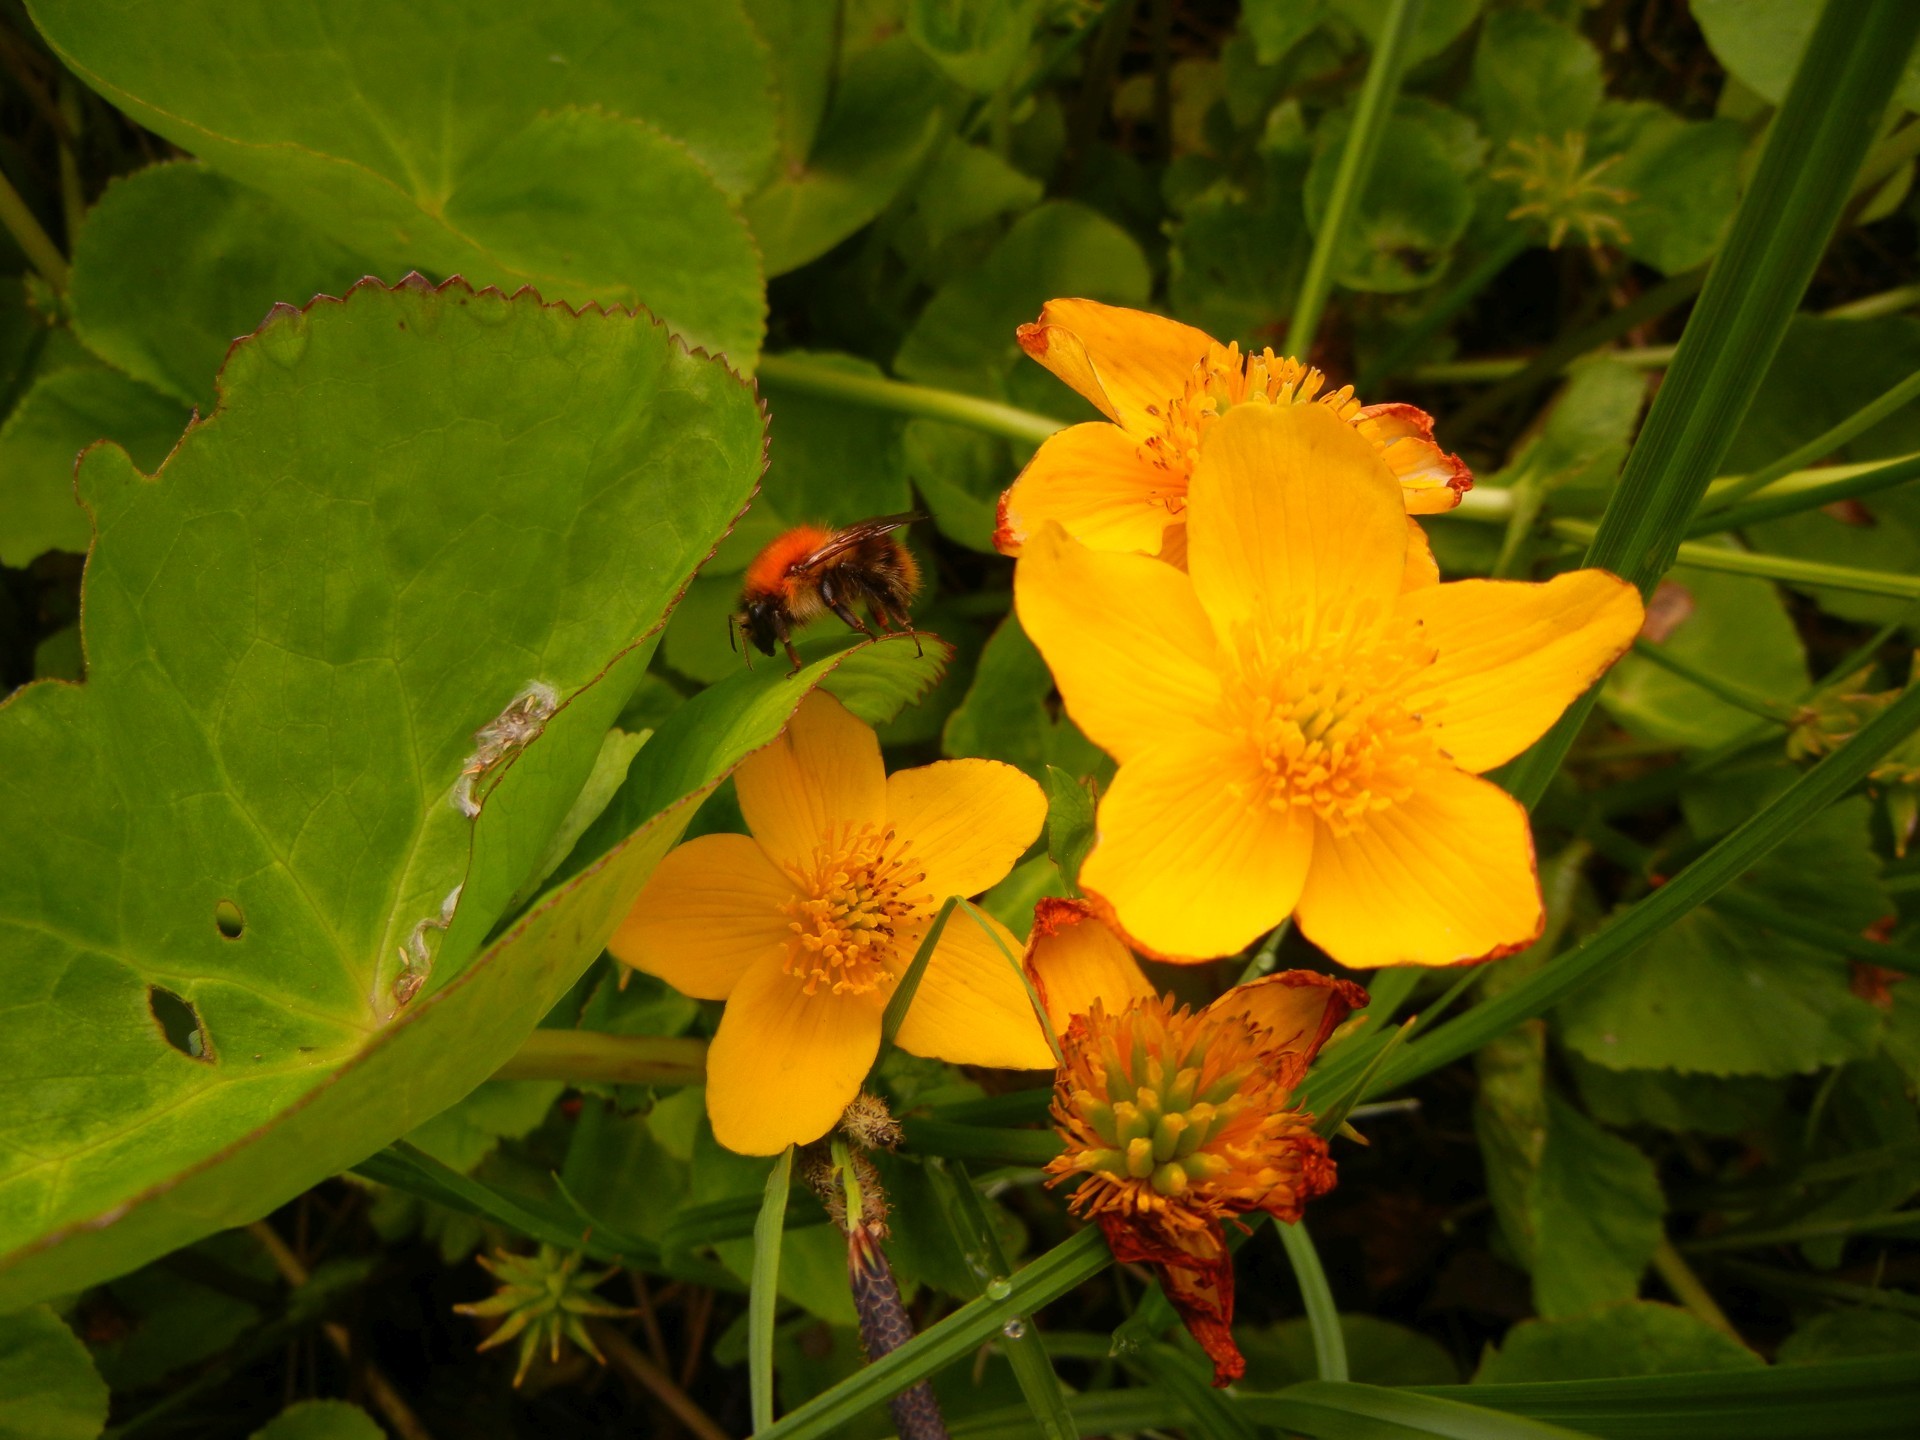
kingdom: Plantae
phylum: Tracheophyta
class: Magnoliopsida
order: Ranunculales
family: Ranunculaceae
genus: Caltha
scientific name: Caltha palustris
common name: Marsh marigold
